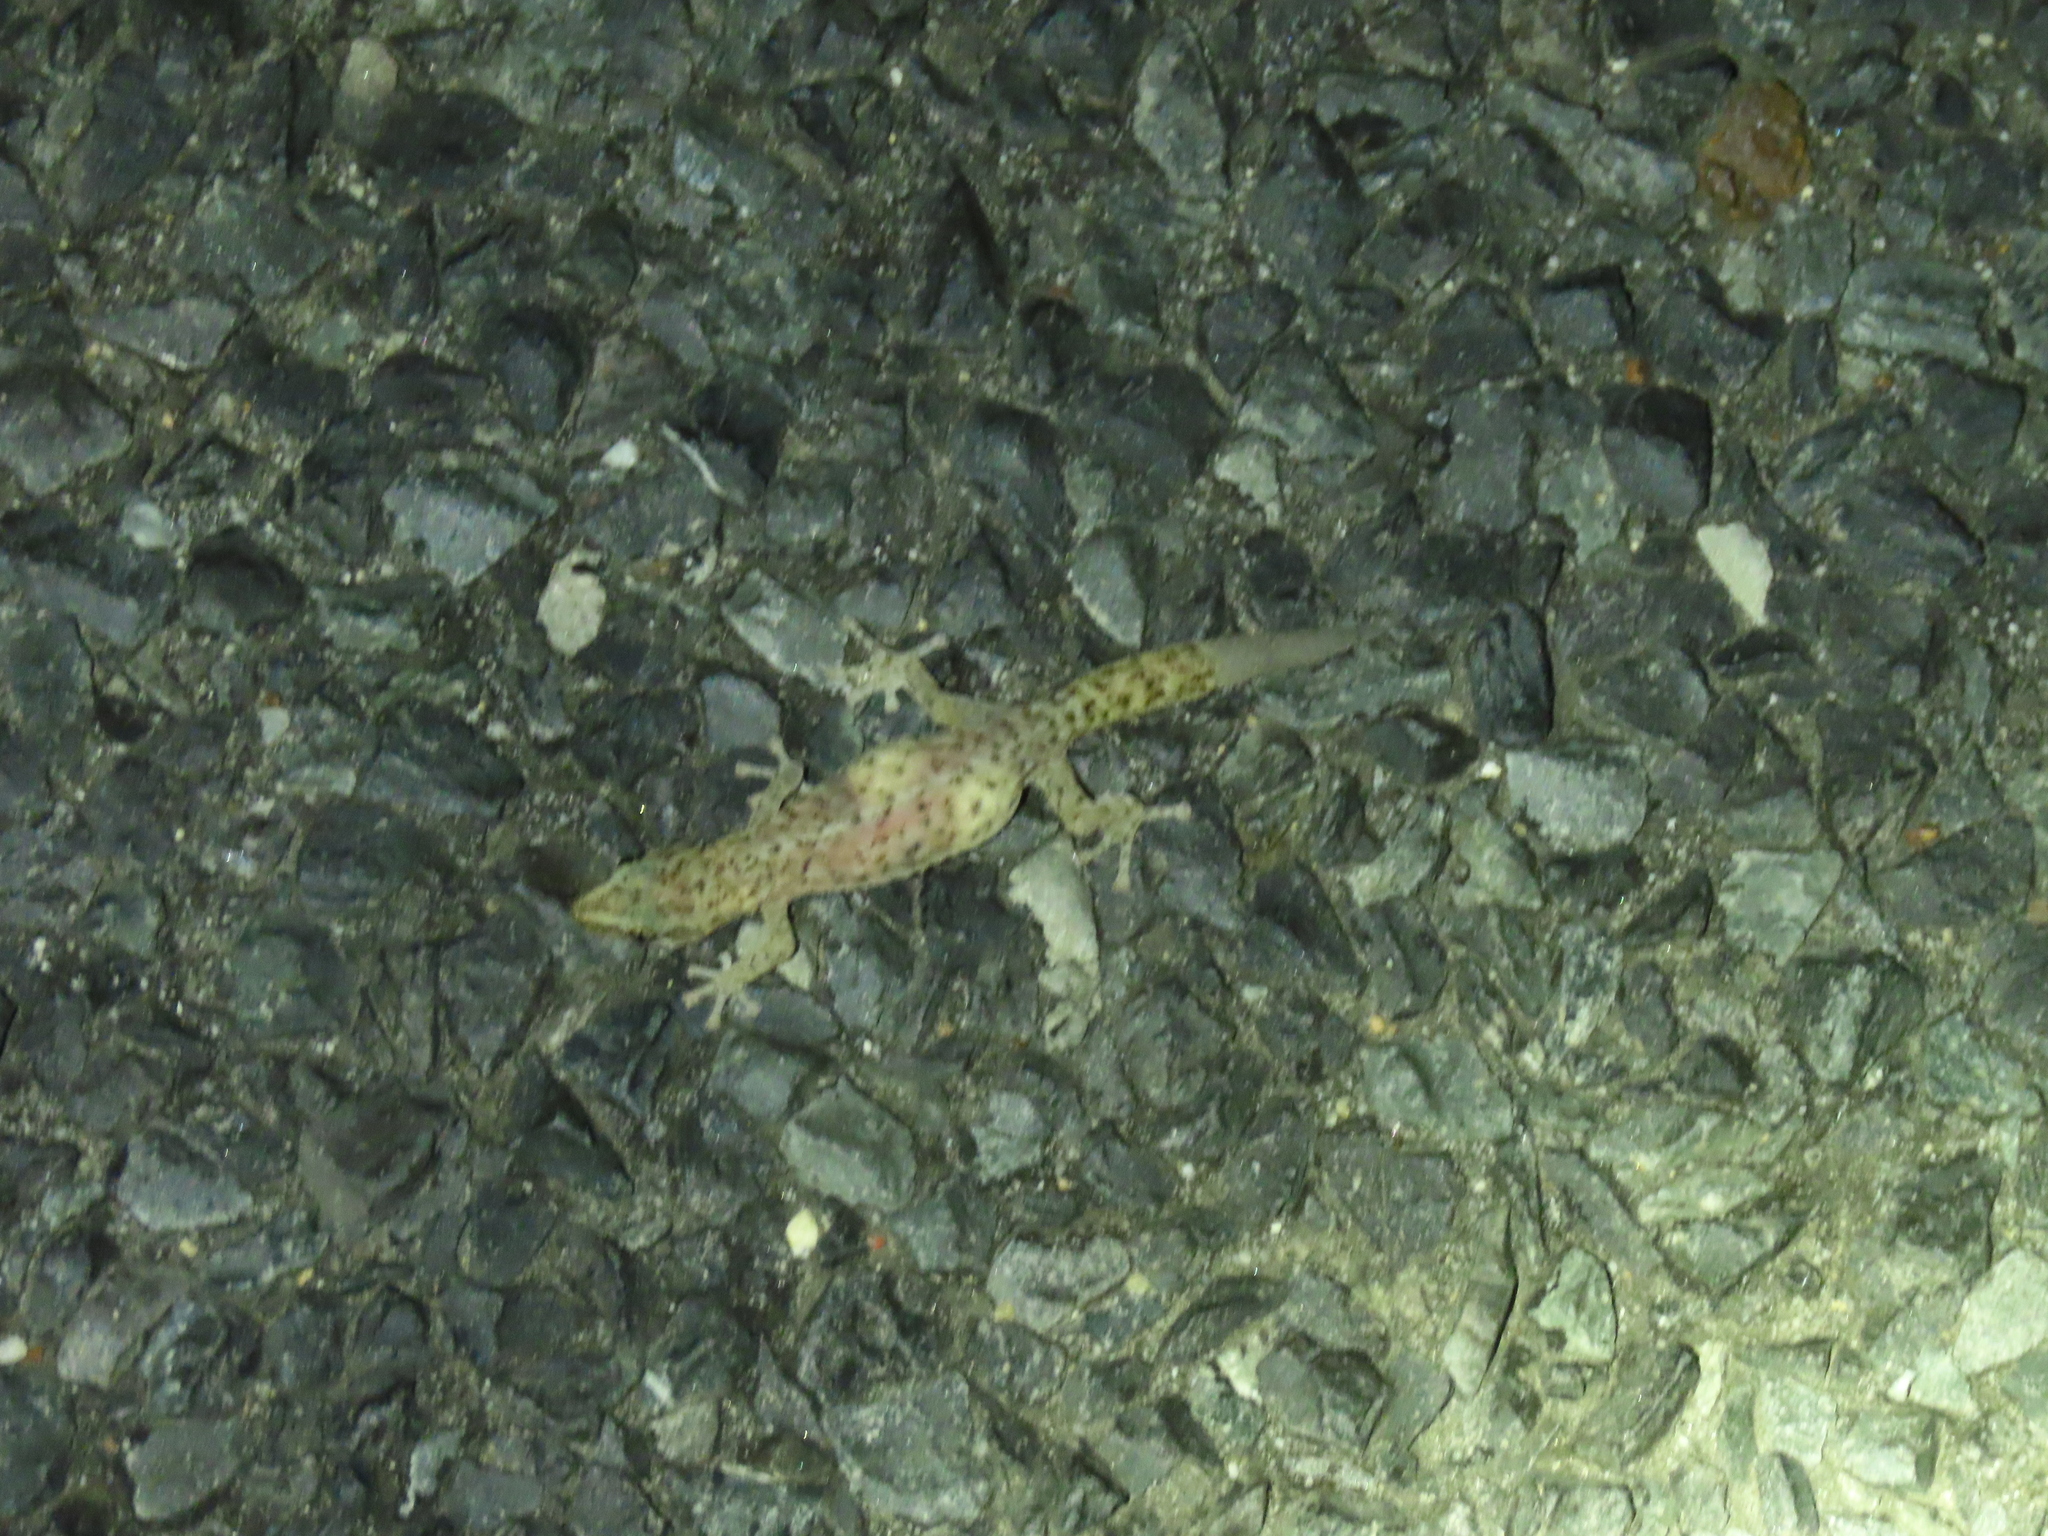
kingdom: Animalia
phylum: Chordata
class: Squamata
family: Gekkonidae
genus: Afrogecko
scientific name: Afrogecko porphyreus
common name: Marbled leaf-toed gecko
